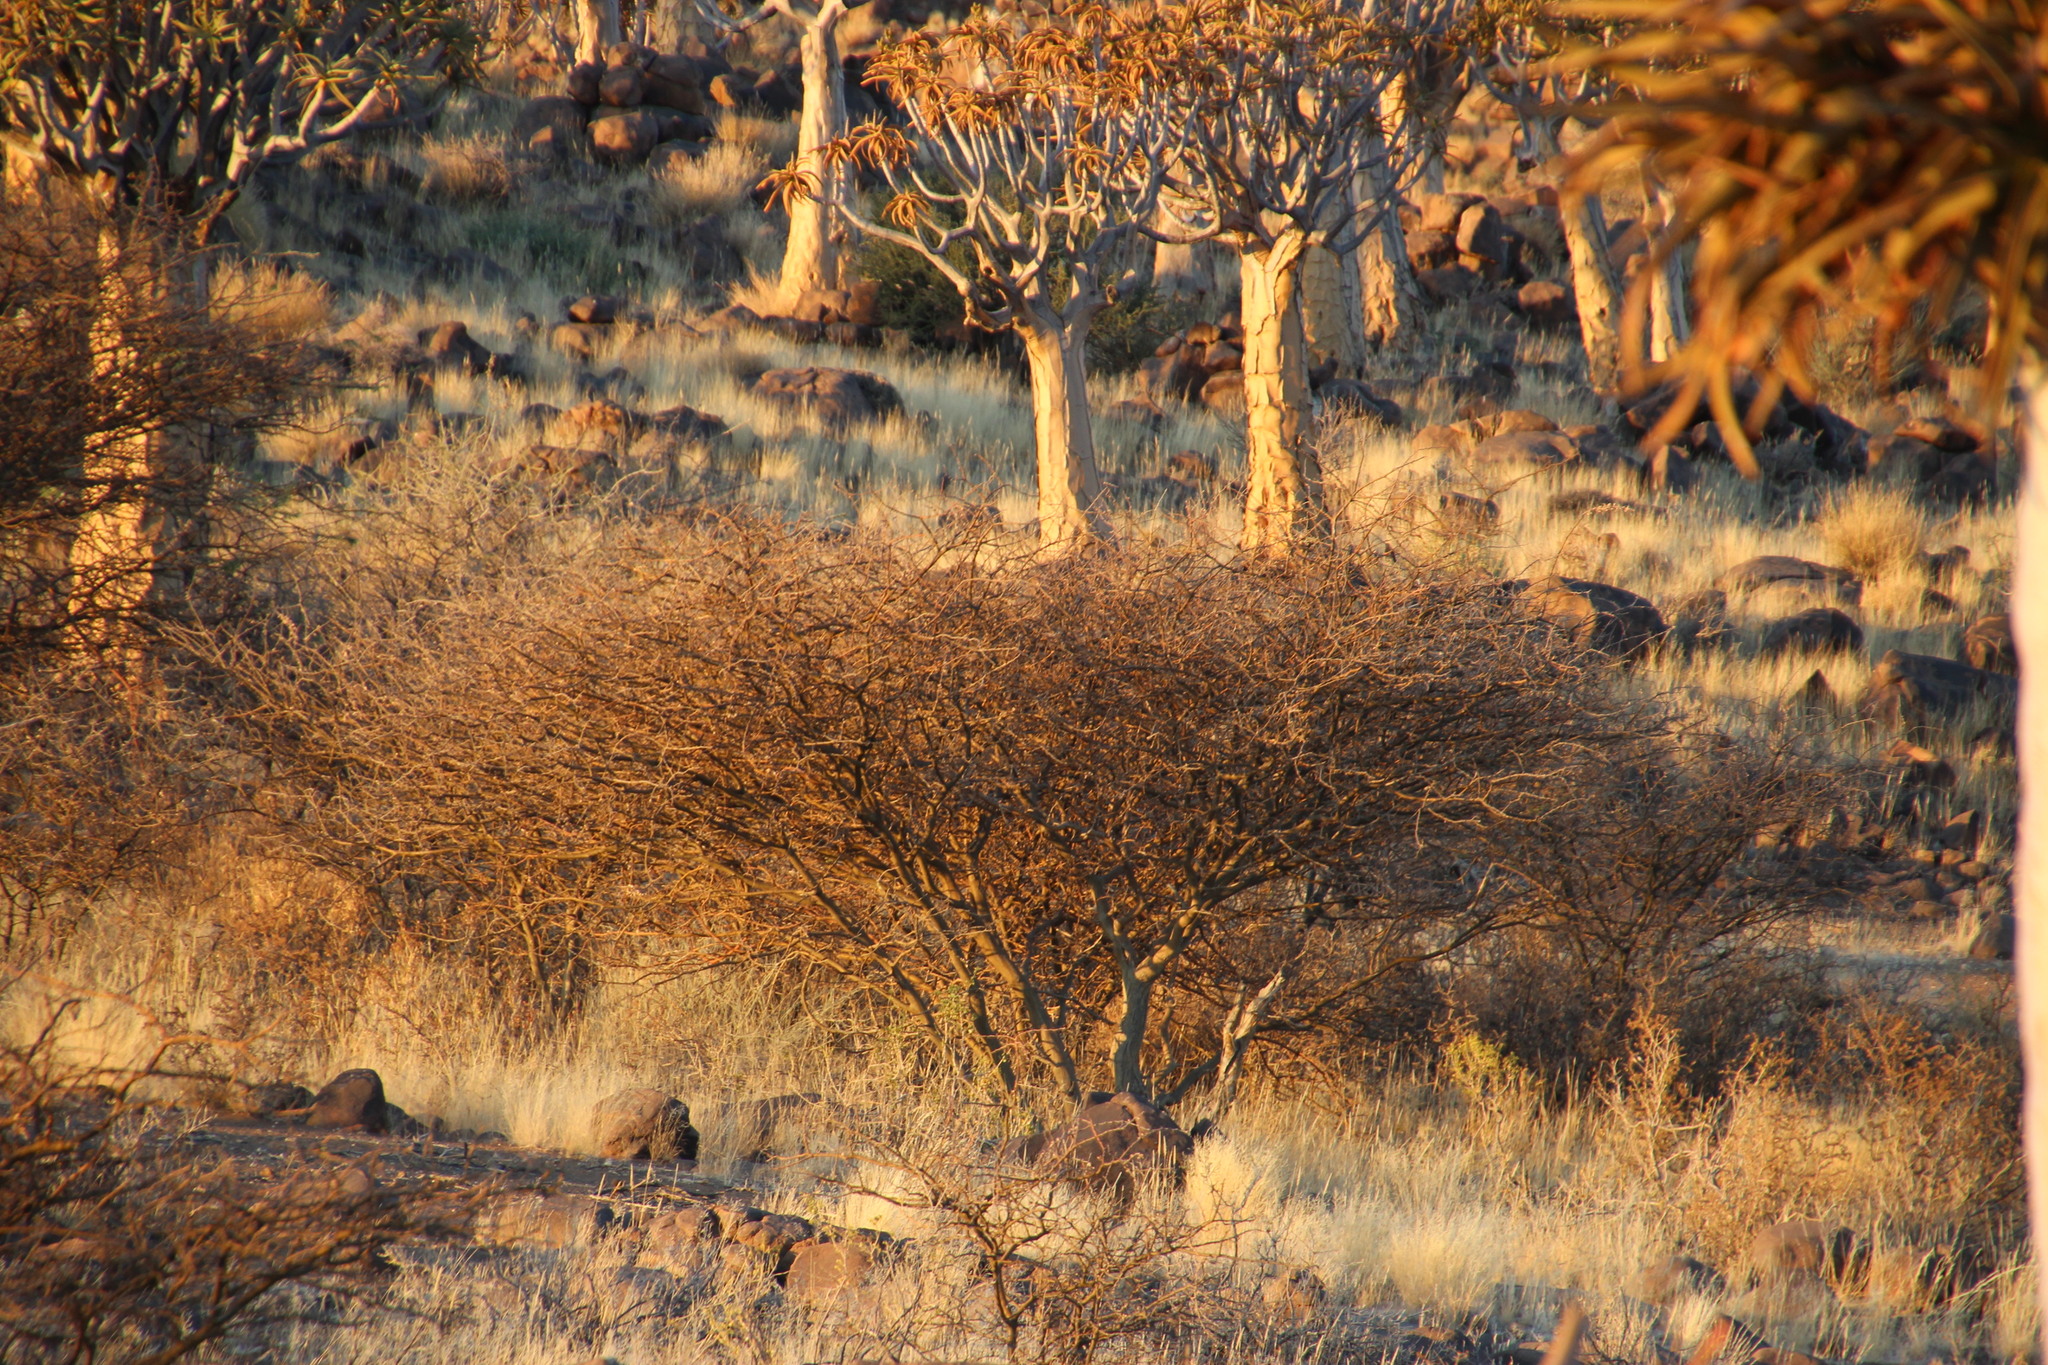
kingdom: Plantae
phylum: Tracheophyta
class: Magnoliopsida
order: Fabales
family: Fabaceae
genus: Senegalia
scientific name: Senegalia mellifera
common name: Hookthorn
